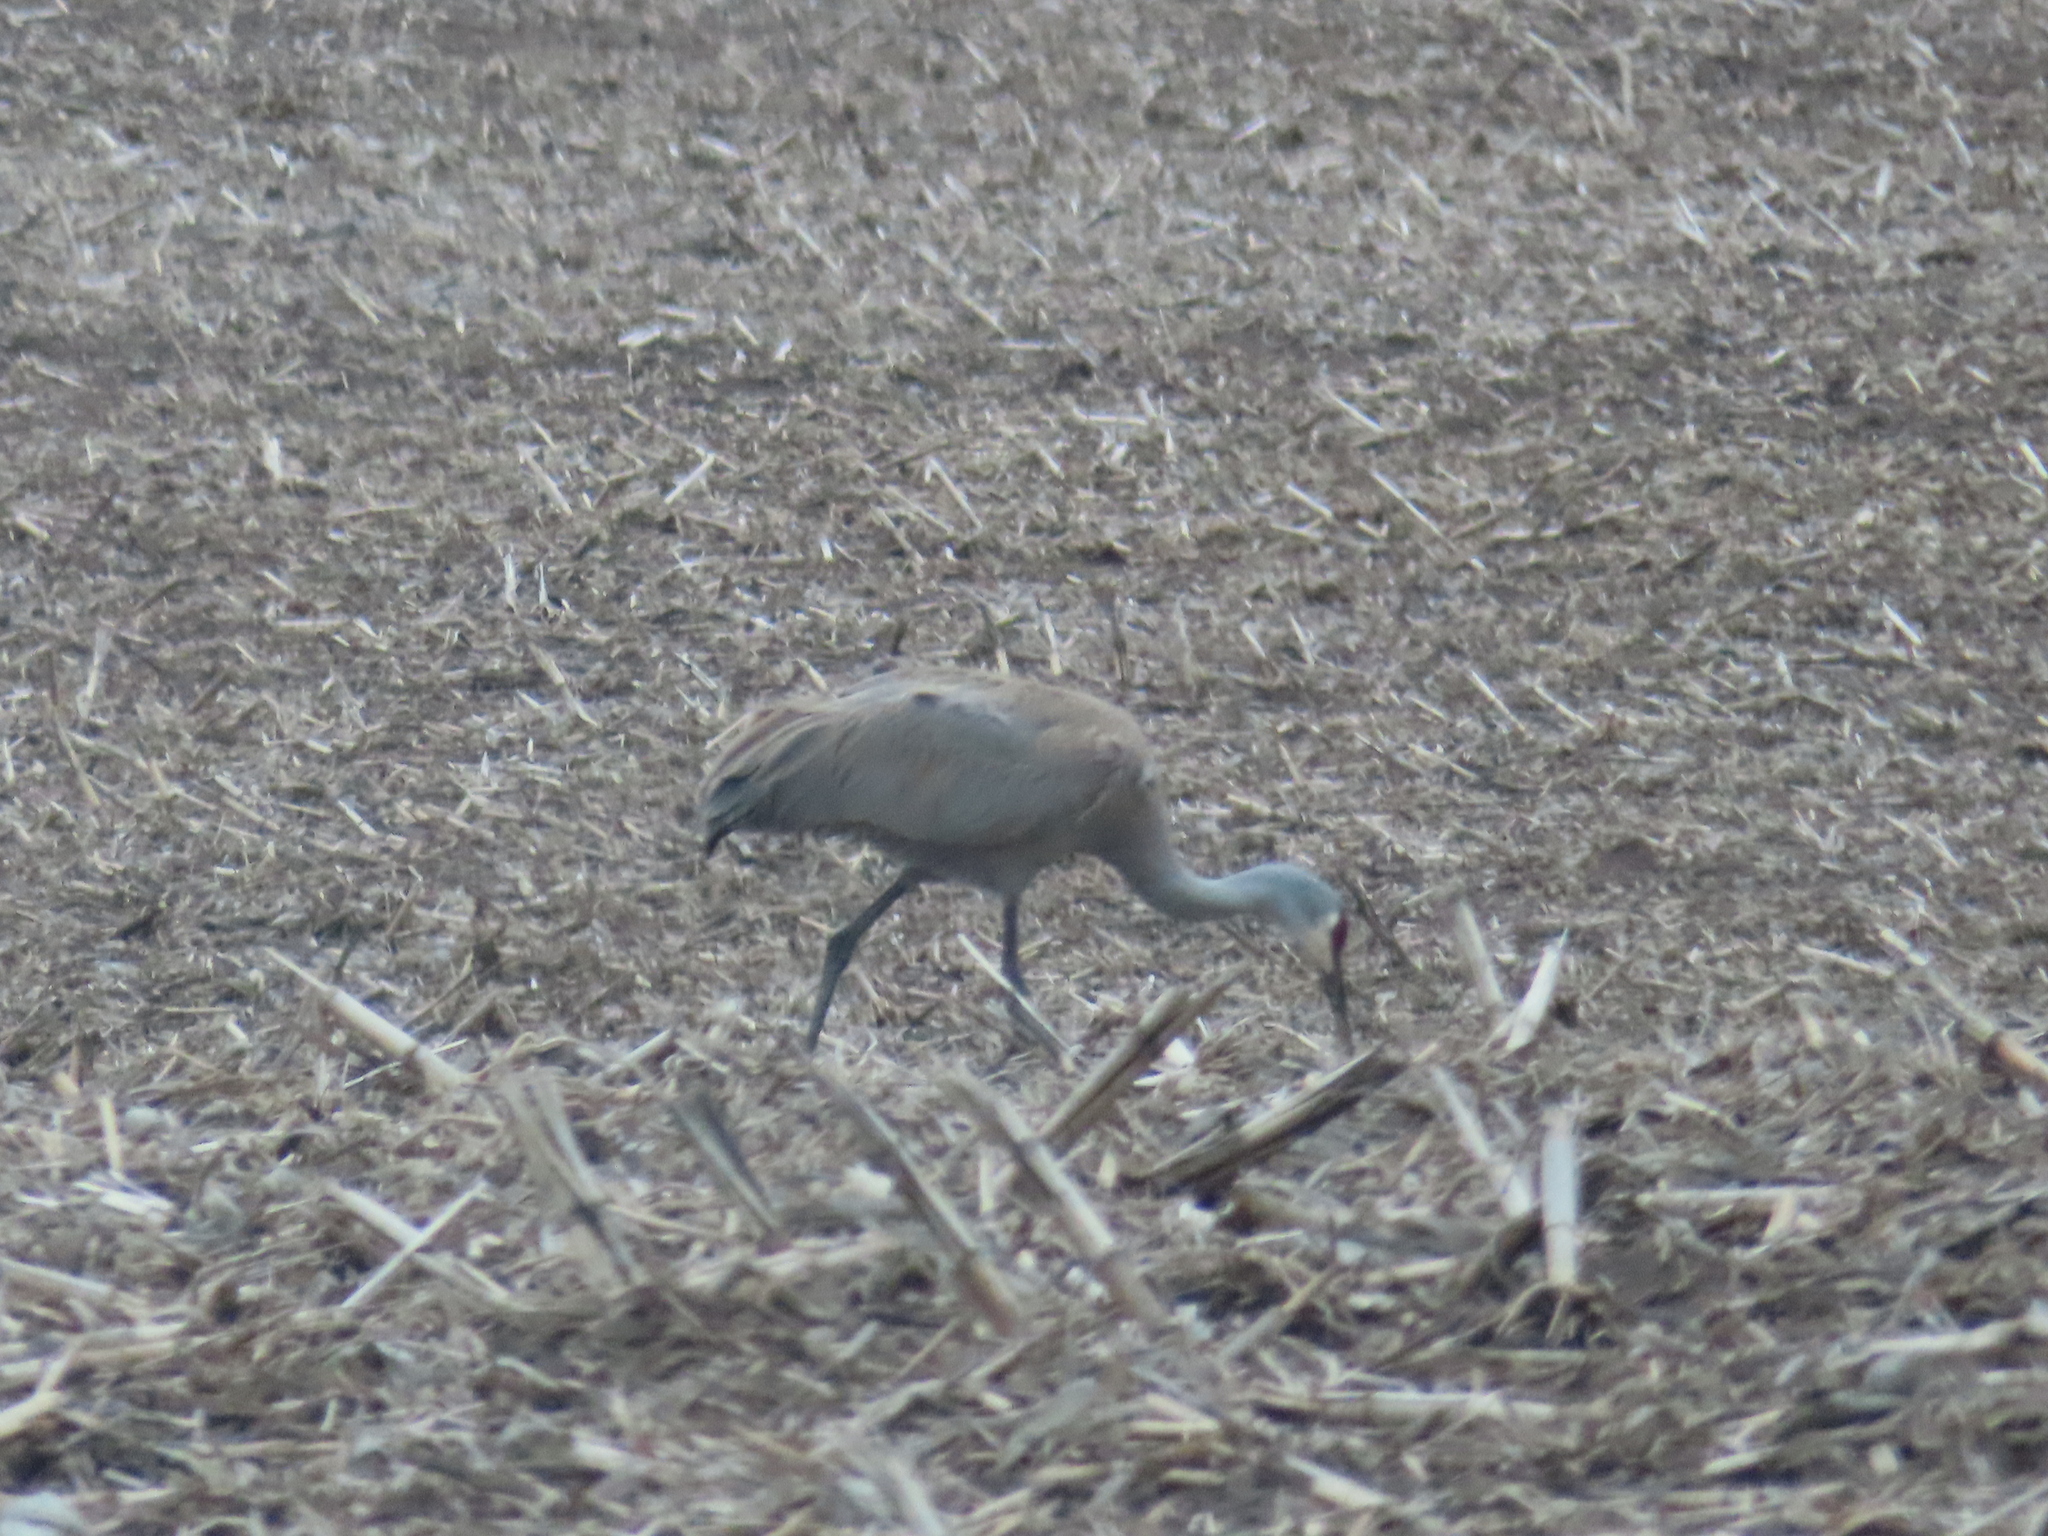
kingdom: Animalia
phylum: Chordata
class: Aves
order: Gruiformes
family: Gruidae
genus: Grus
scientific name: Grus canadensis
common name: Sandhill crane
